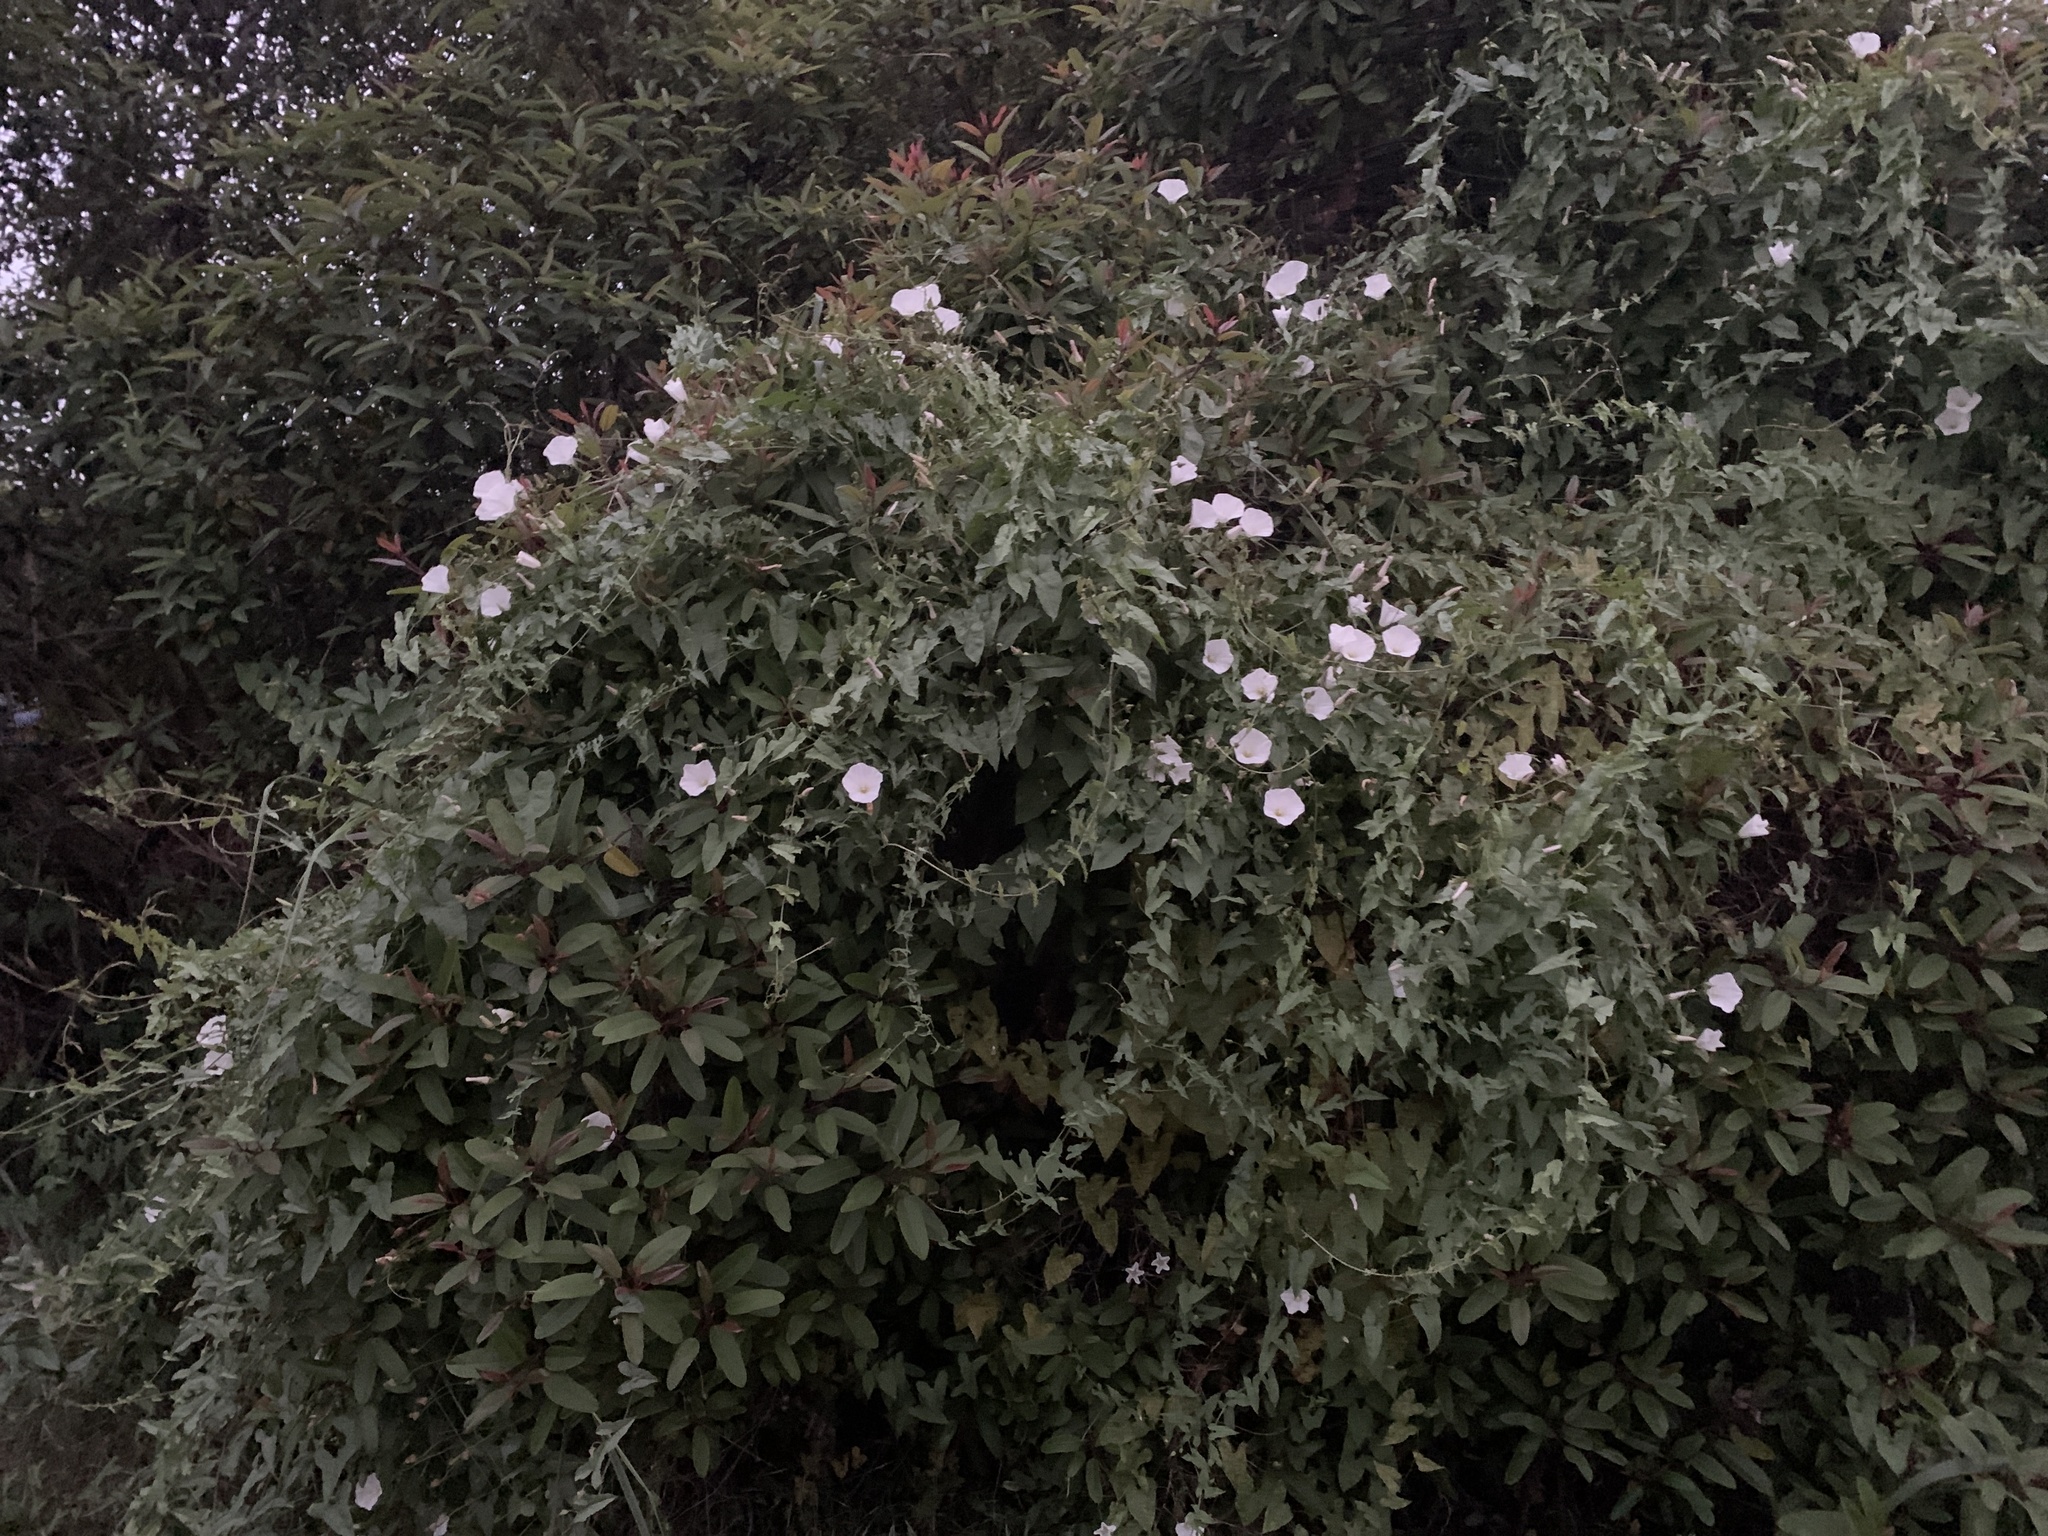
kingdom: Plantae
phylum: Tracheophyta
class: Magnoliopsida
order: Solanales
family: Convolvulaceae
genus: Calystegia
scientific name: Calystegia macrostegia
